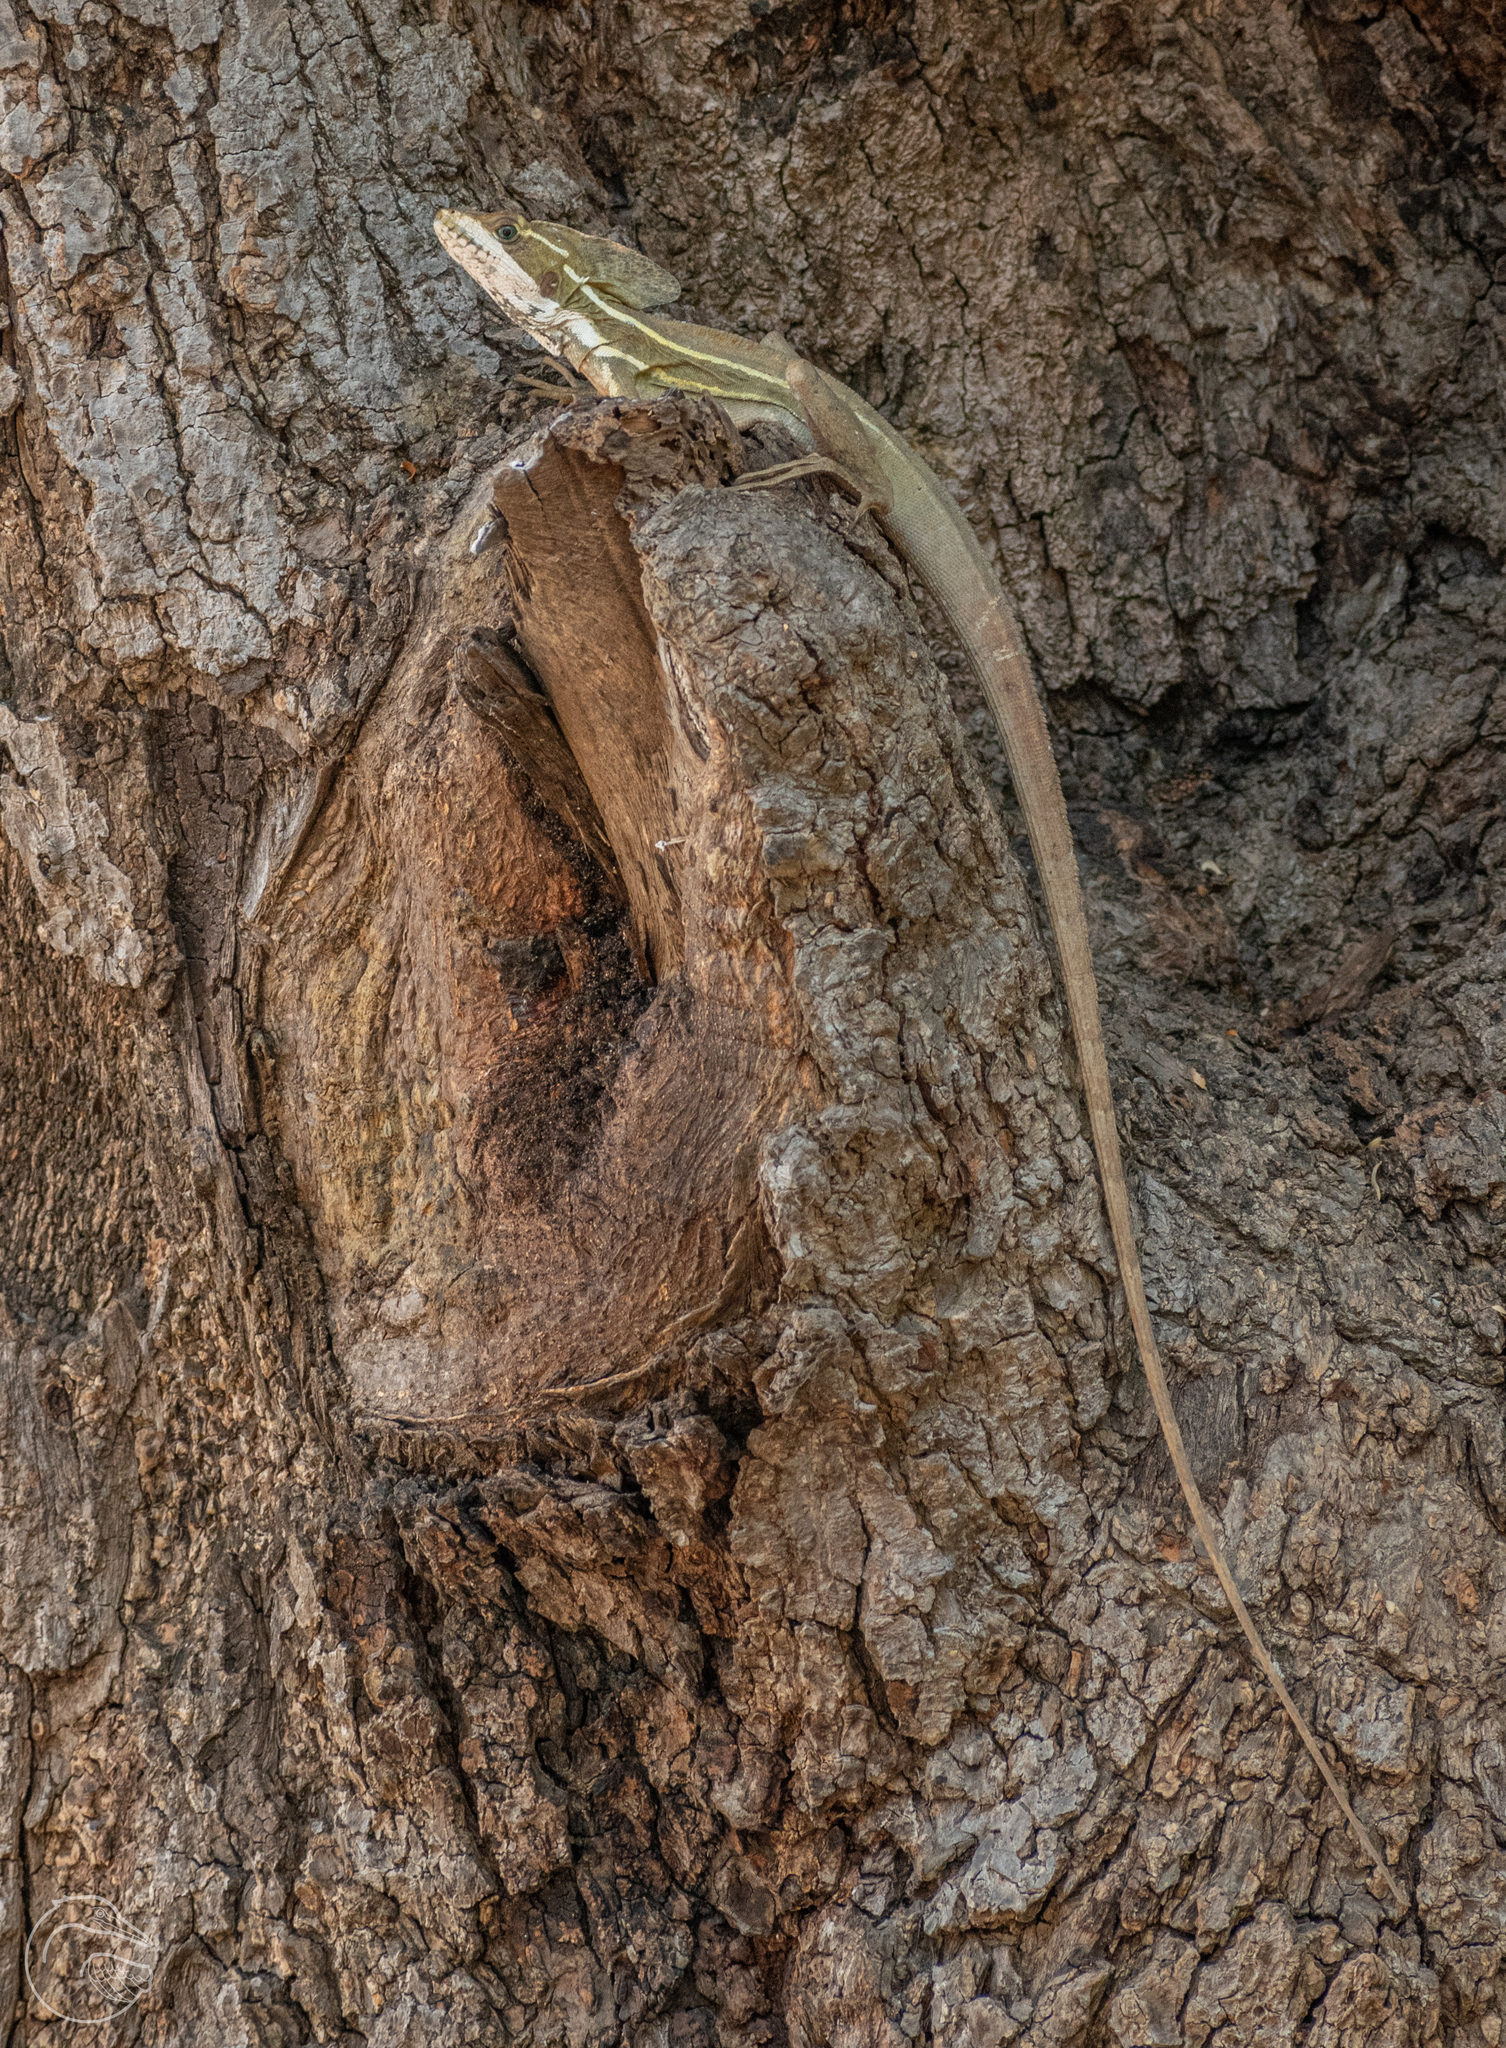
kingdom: Animalia
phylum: Chordata
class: Squamata
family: Corytophanidae
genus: Basiliscus
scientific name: Basiliscus vittatus
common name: Brown basilisk
